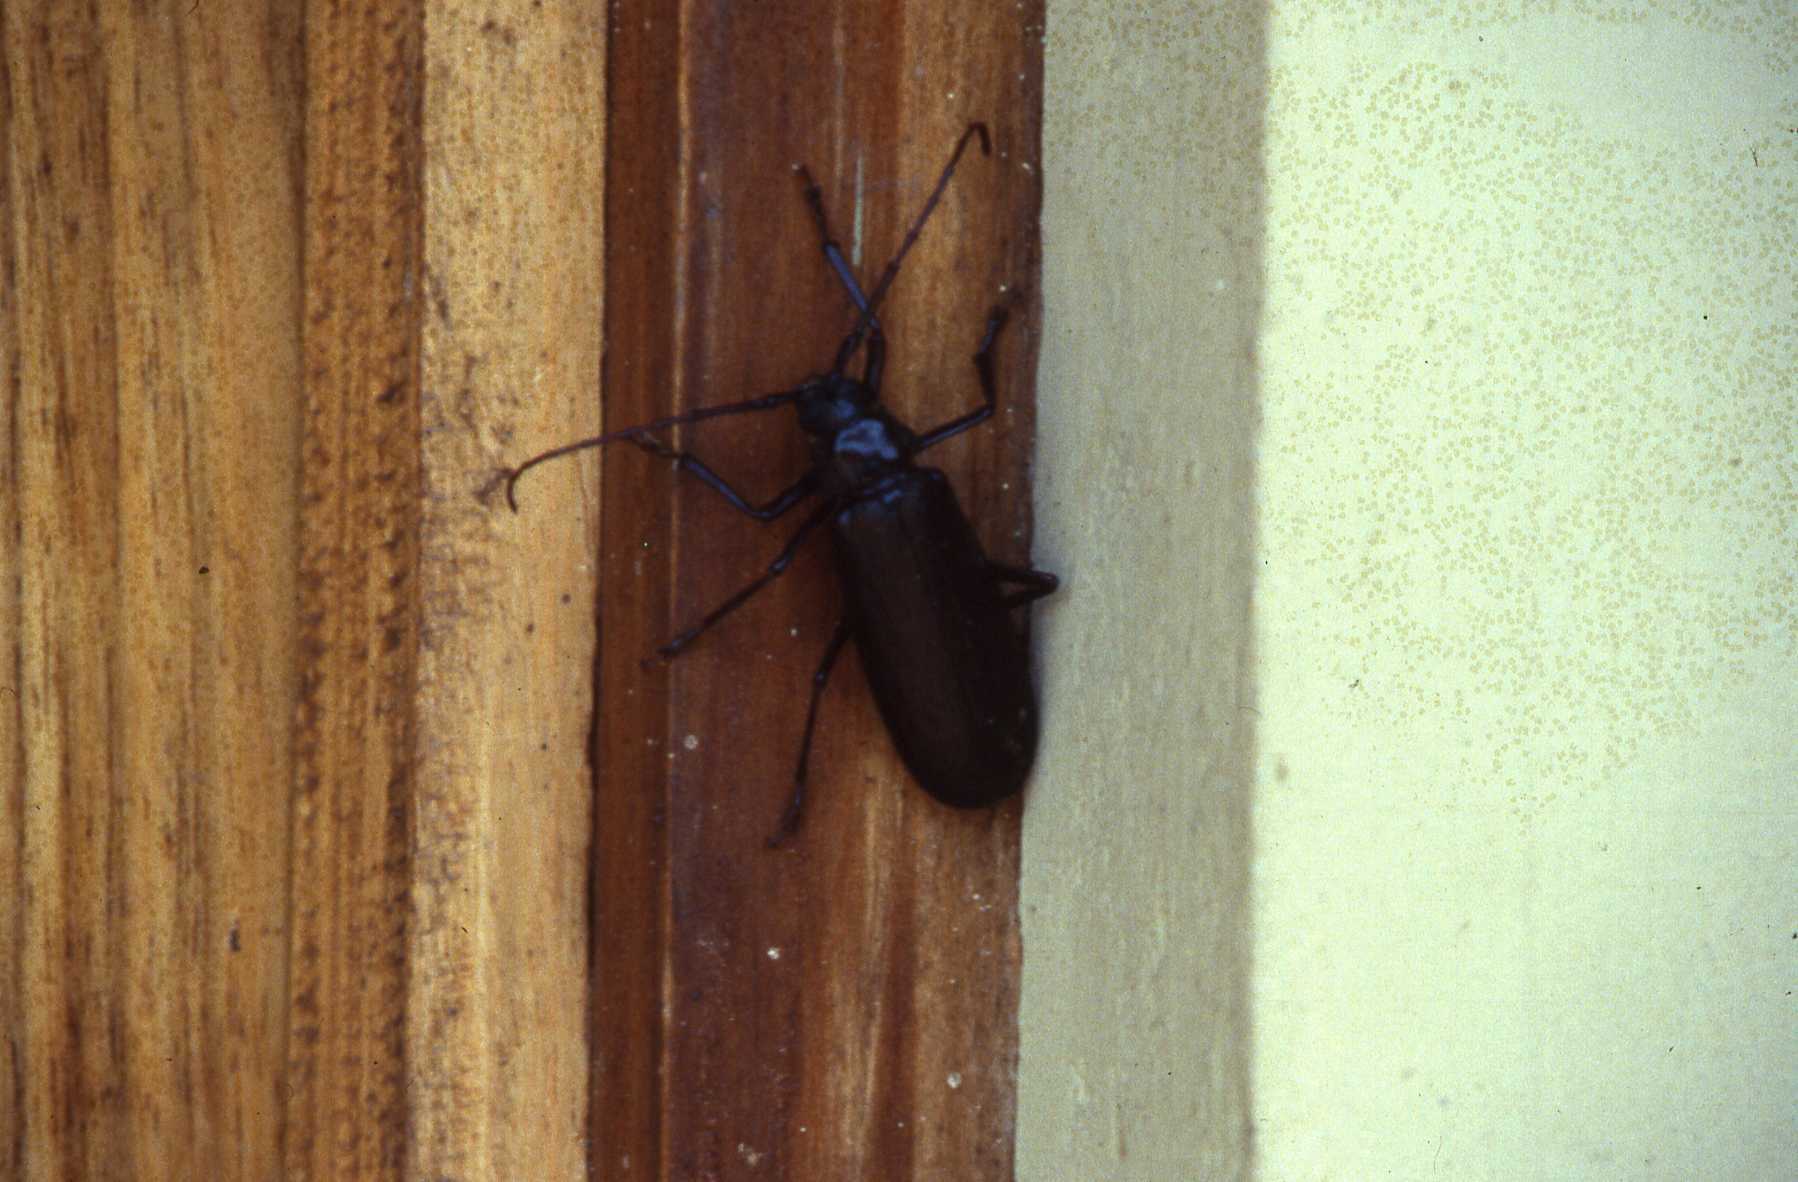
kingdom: Animalia
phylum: Arthropoda
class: Insecta
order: Coleoptera
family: Cerambycidae
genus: Macrotoma
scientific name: Macrotoma palmata
